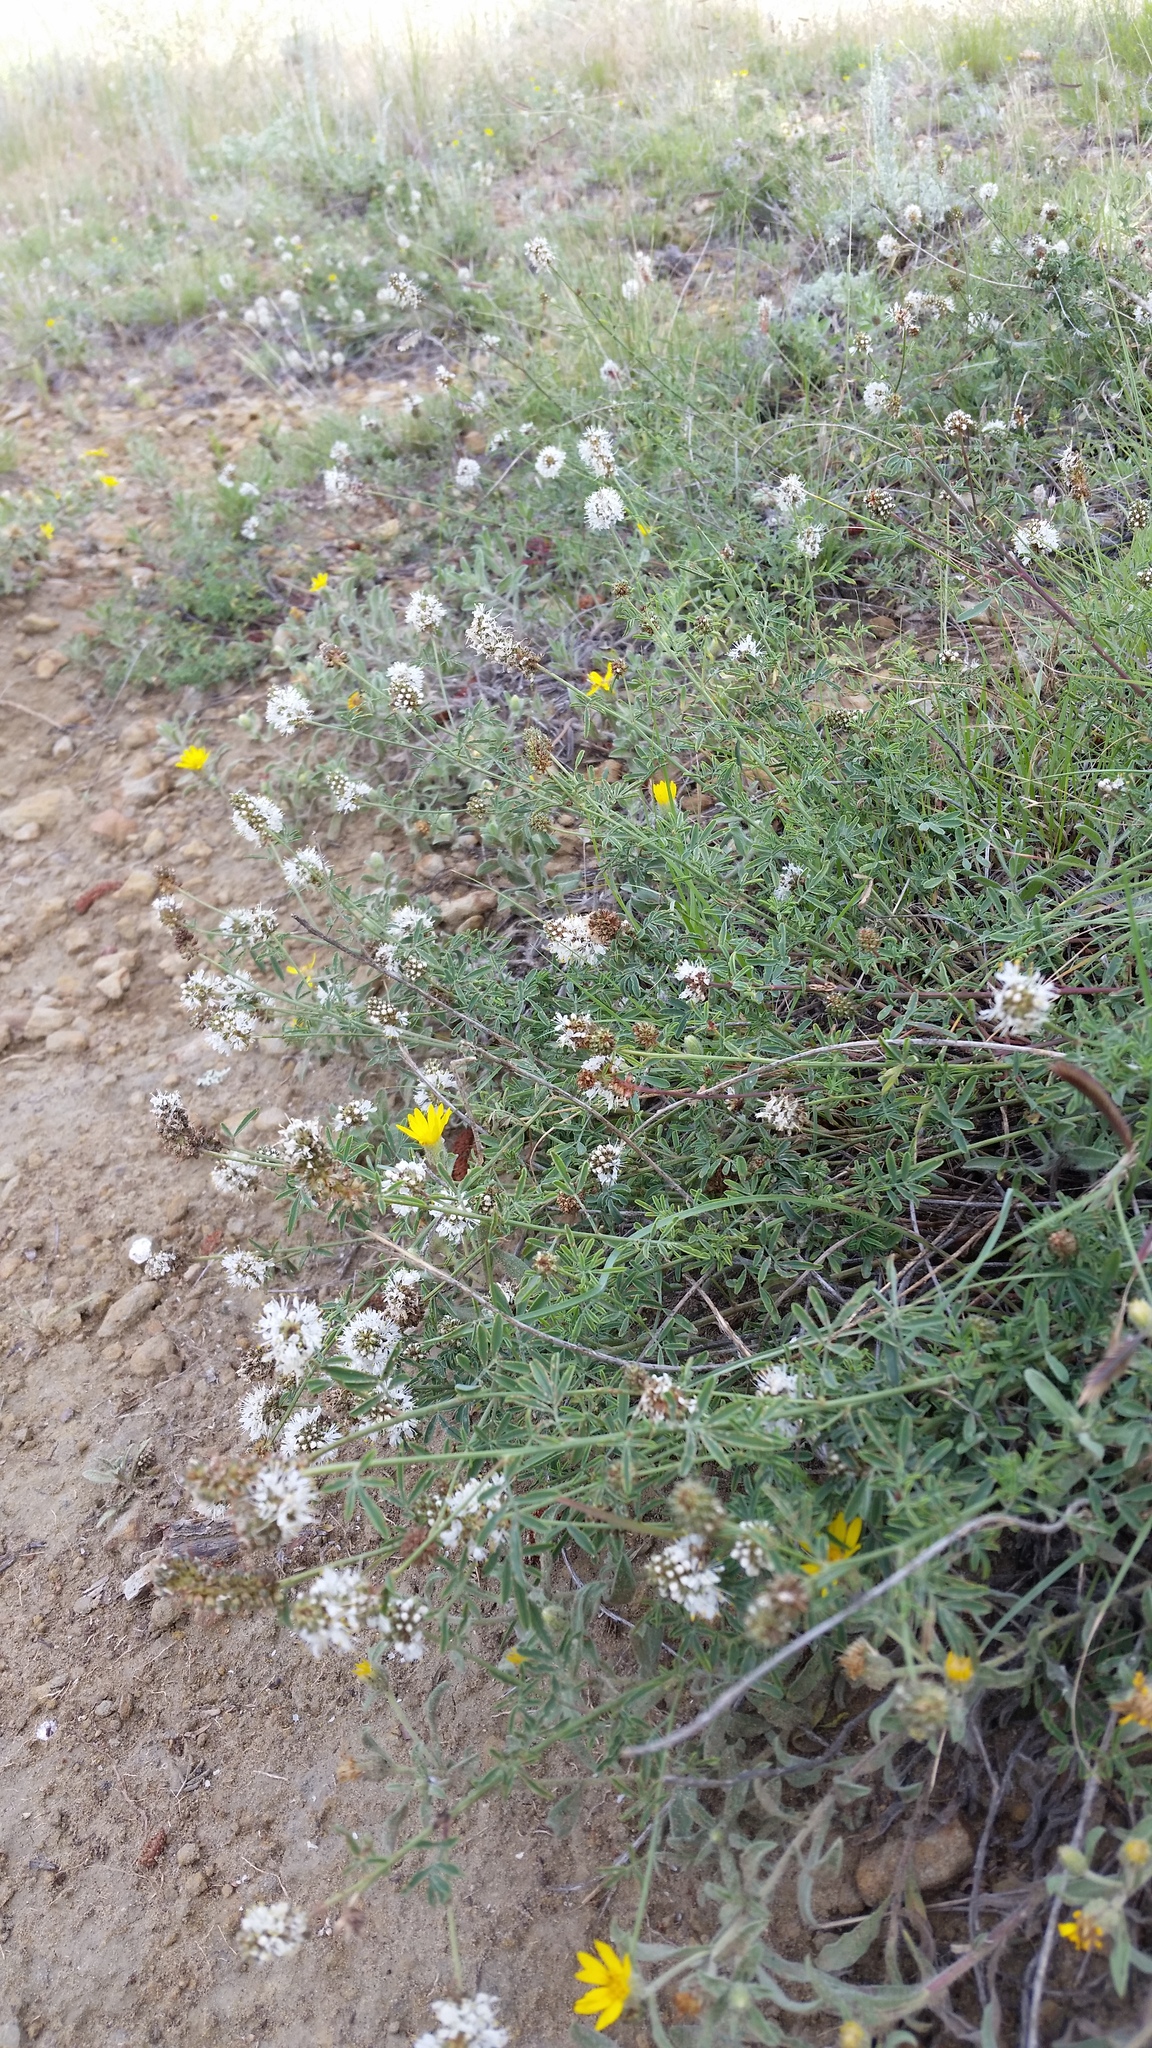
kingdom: Plantae
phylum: Tracheophyta
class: Magnoliopsida
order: Fabales
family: Fabaceae
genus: Dalea
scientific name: Dalea candida
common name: White prairie-clover
